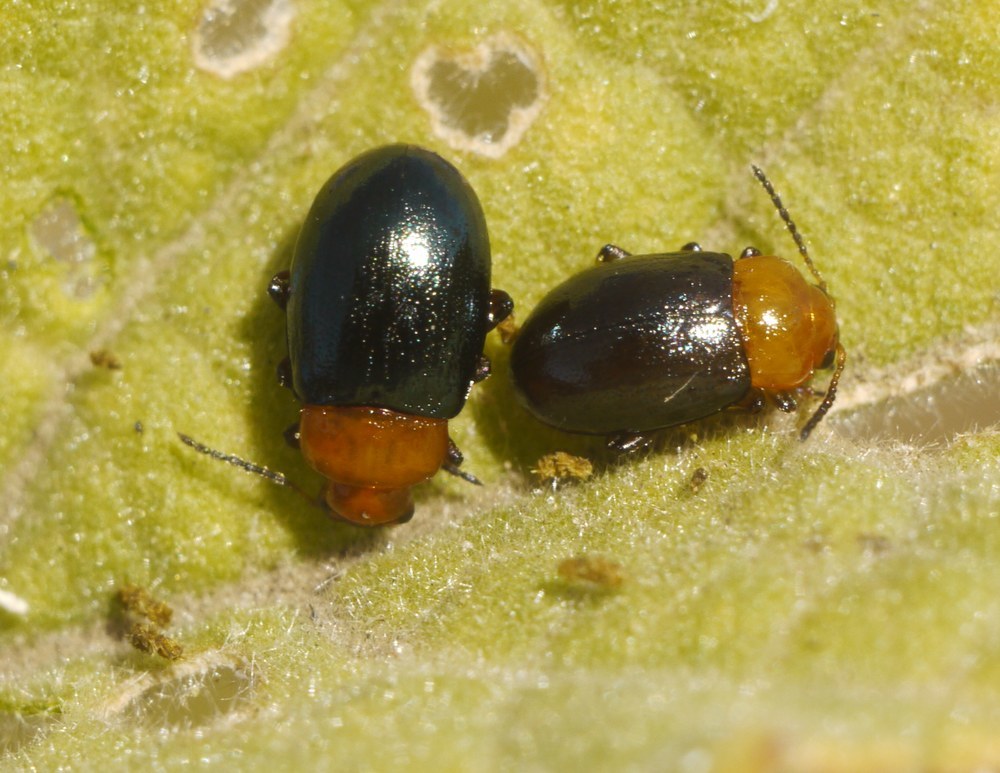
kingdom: Animalia
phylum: Arthropoda
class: Insecta
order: Coleoptera
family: Chrysomelidae
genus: Podagrica
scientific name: Podagrica fuscipes
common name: Mallow flea beetle
